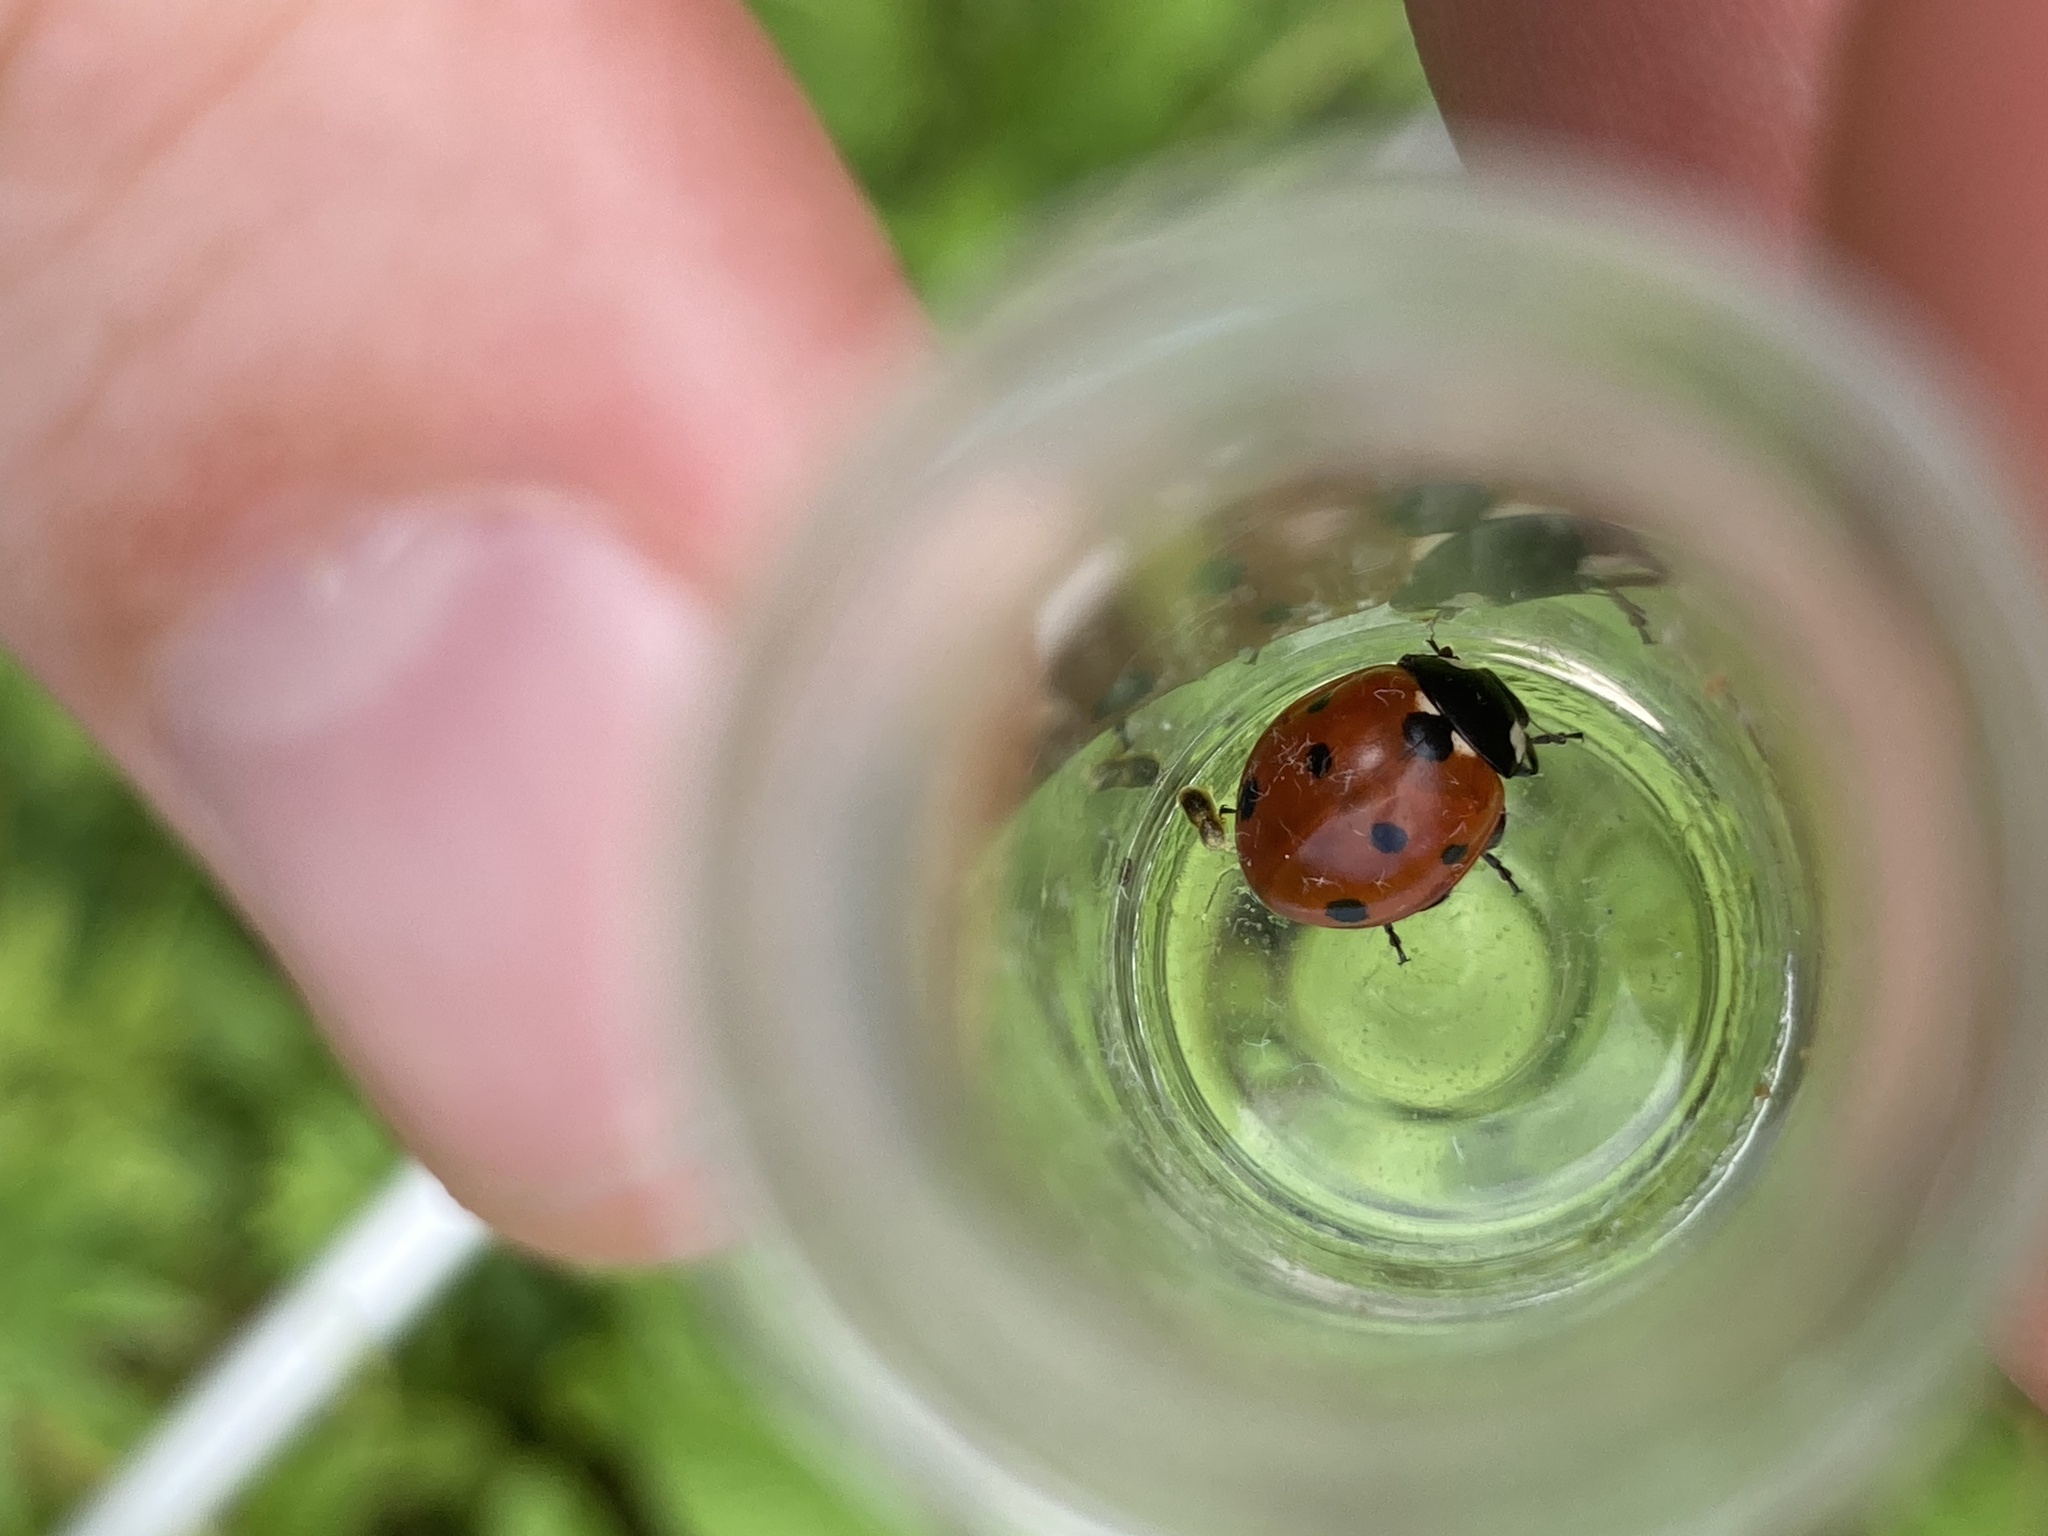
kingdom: Animalia
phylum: Arthropoda
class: Insecta
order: Coleoptera
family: Coccinellidae
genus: Coccinella
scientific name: Coccinella septempunctata
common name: Sevenspotted lady beetle
